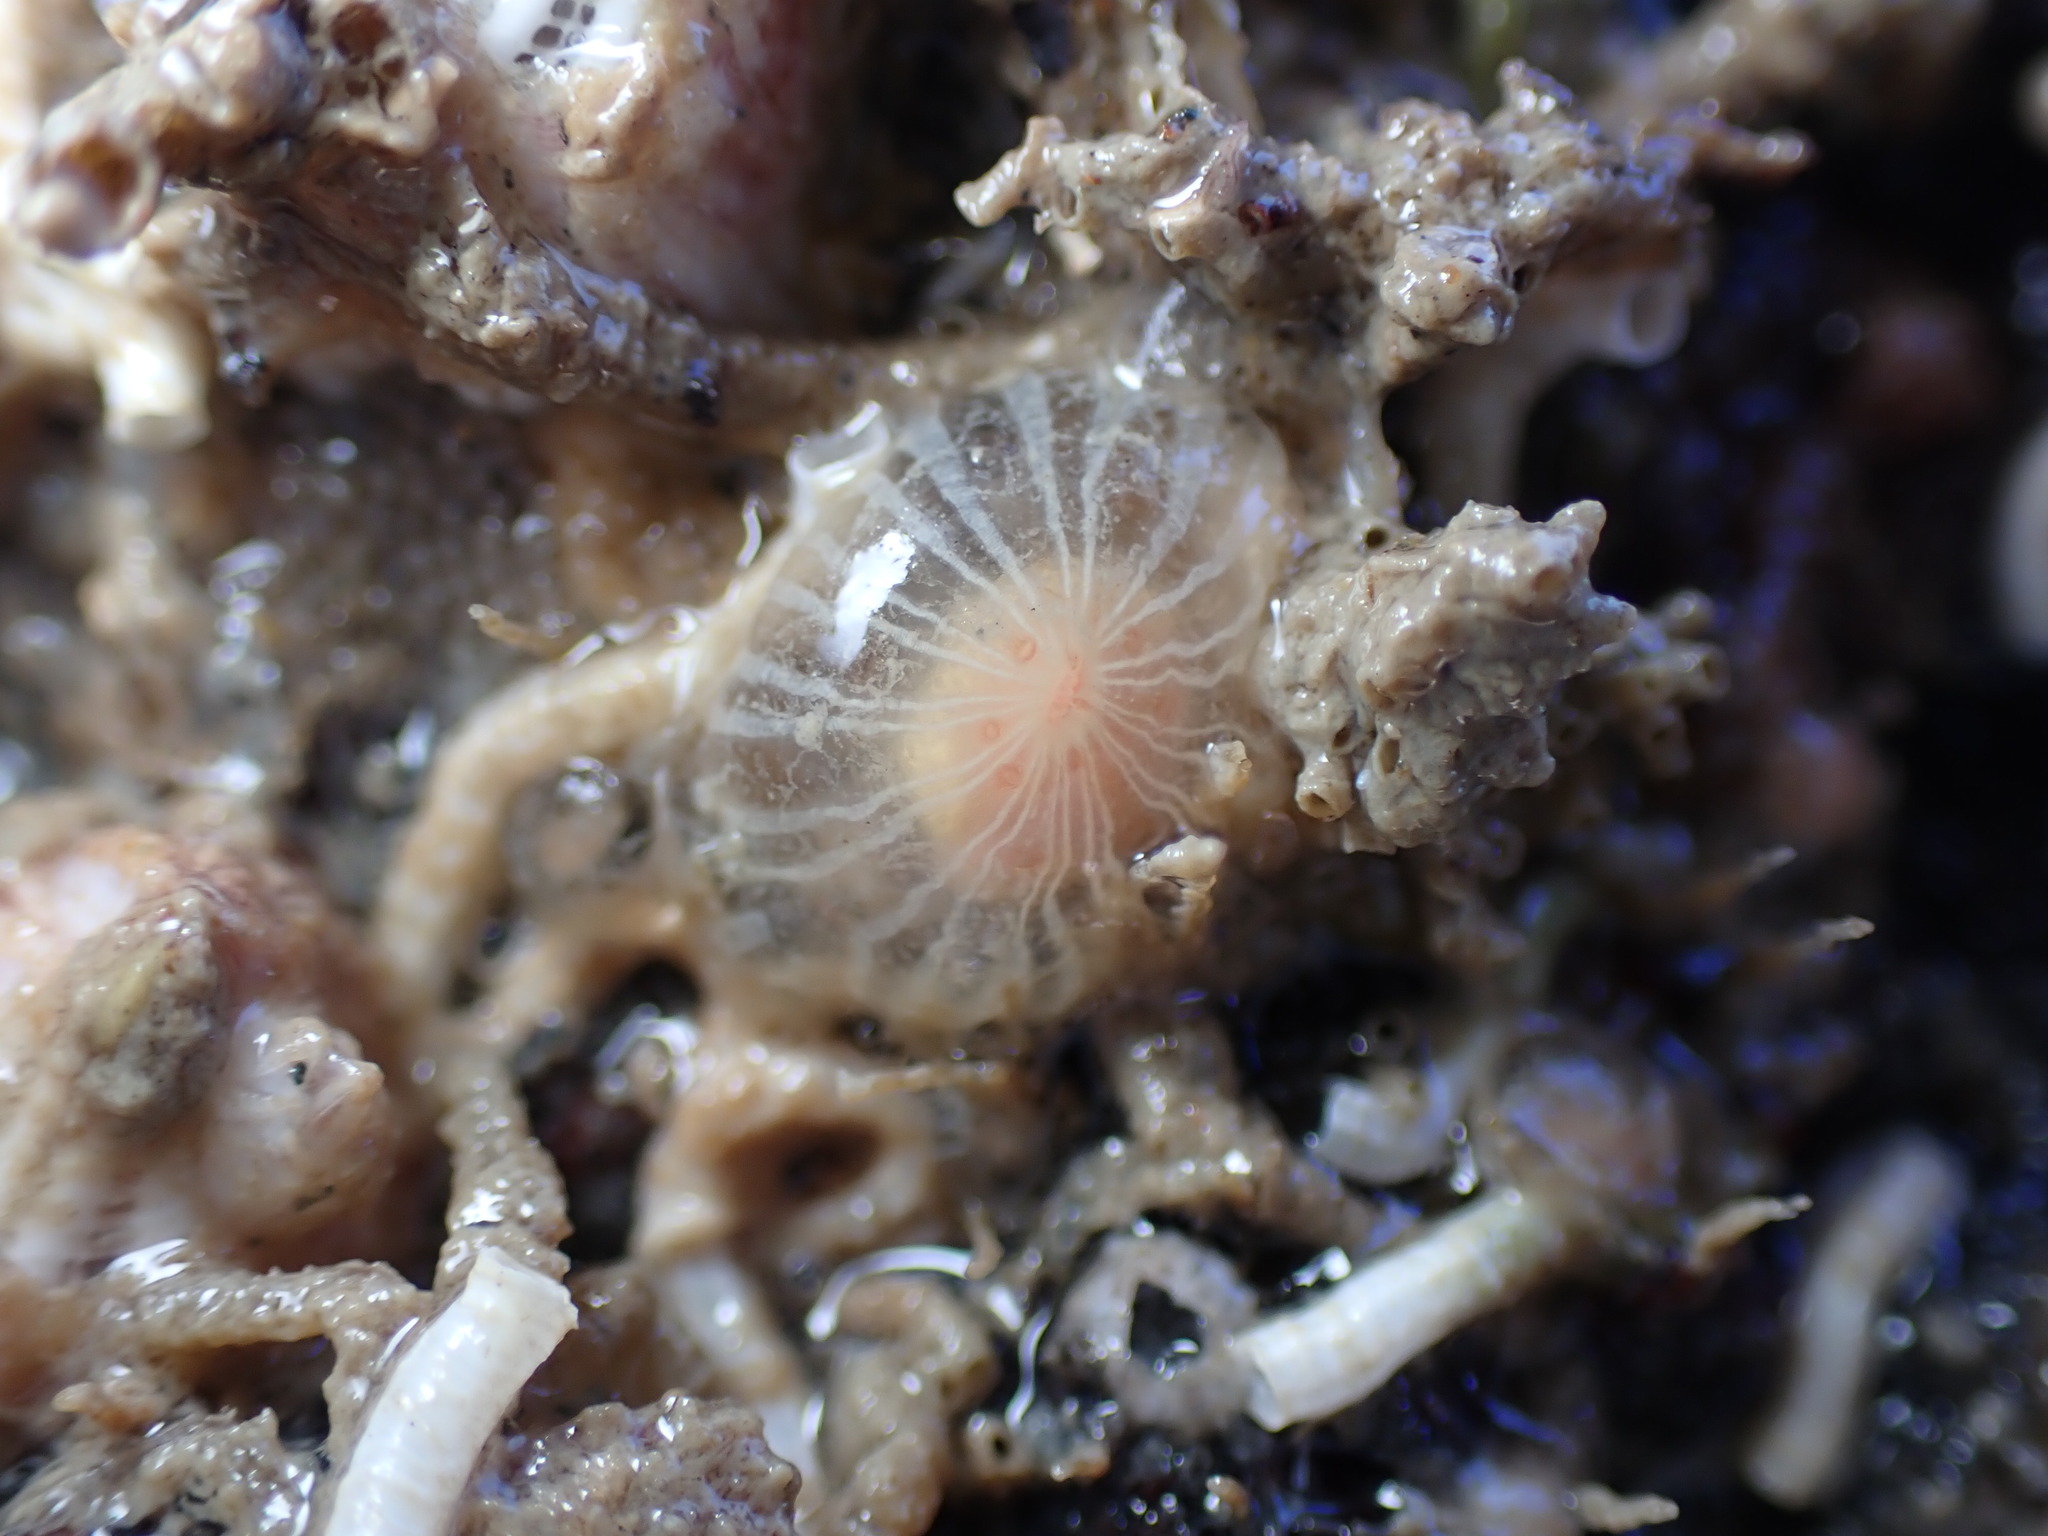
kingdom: Animalia
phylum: Cnidaria
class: Anthozoa
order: Actiniaria
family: Diadumenidae
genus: Diadumene
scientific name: Diadumene neozelanica
